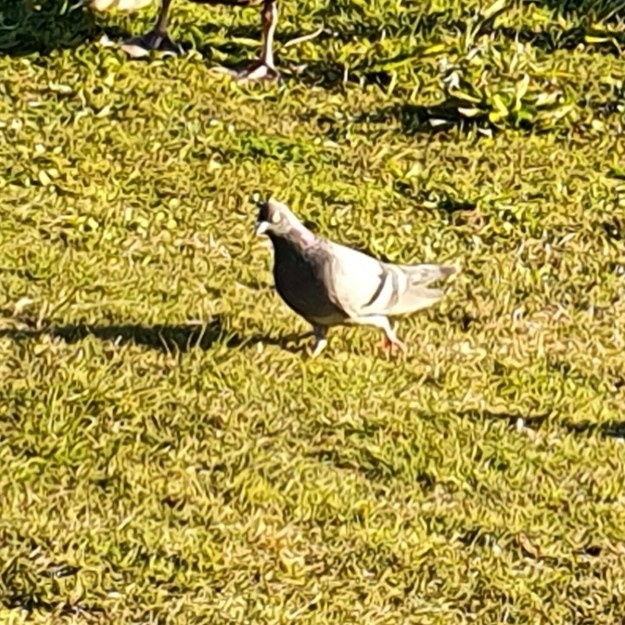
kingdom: Animalia
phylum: Chordata
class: Aves
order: Columbiformes
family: Columbidae
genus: Columba
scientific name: Columba livia
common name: Rock pigeon
